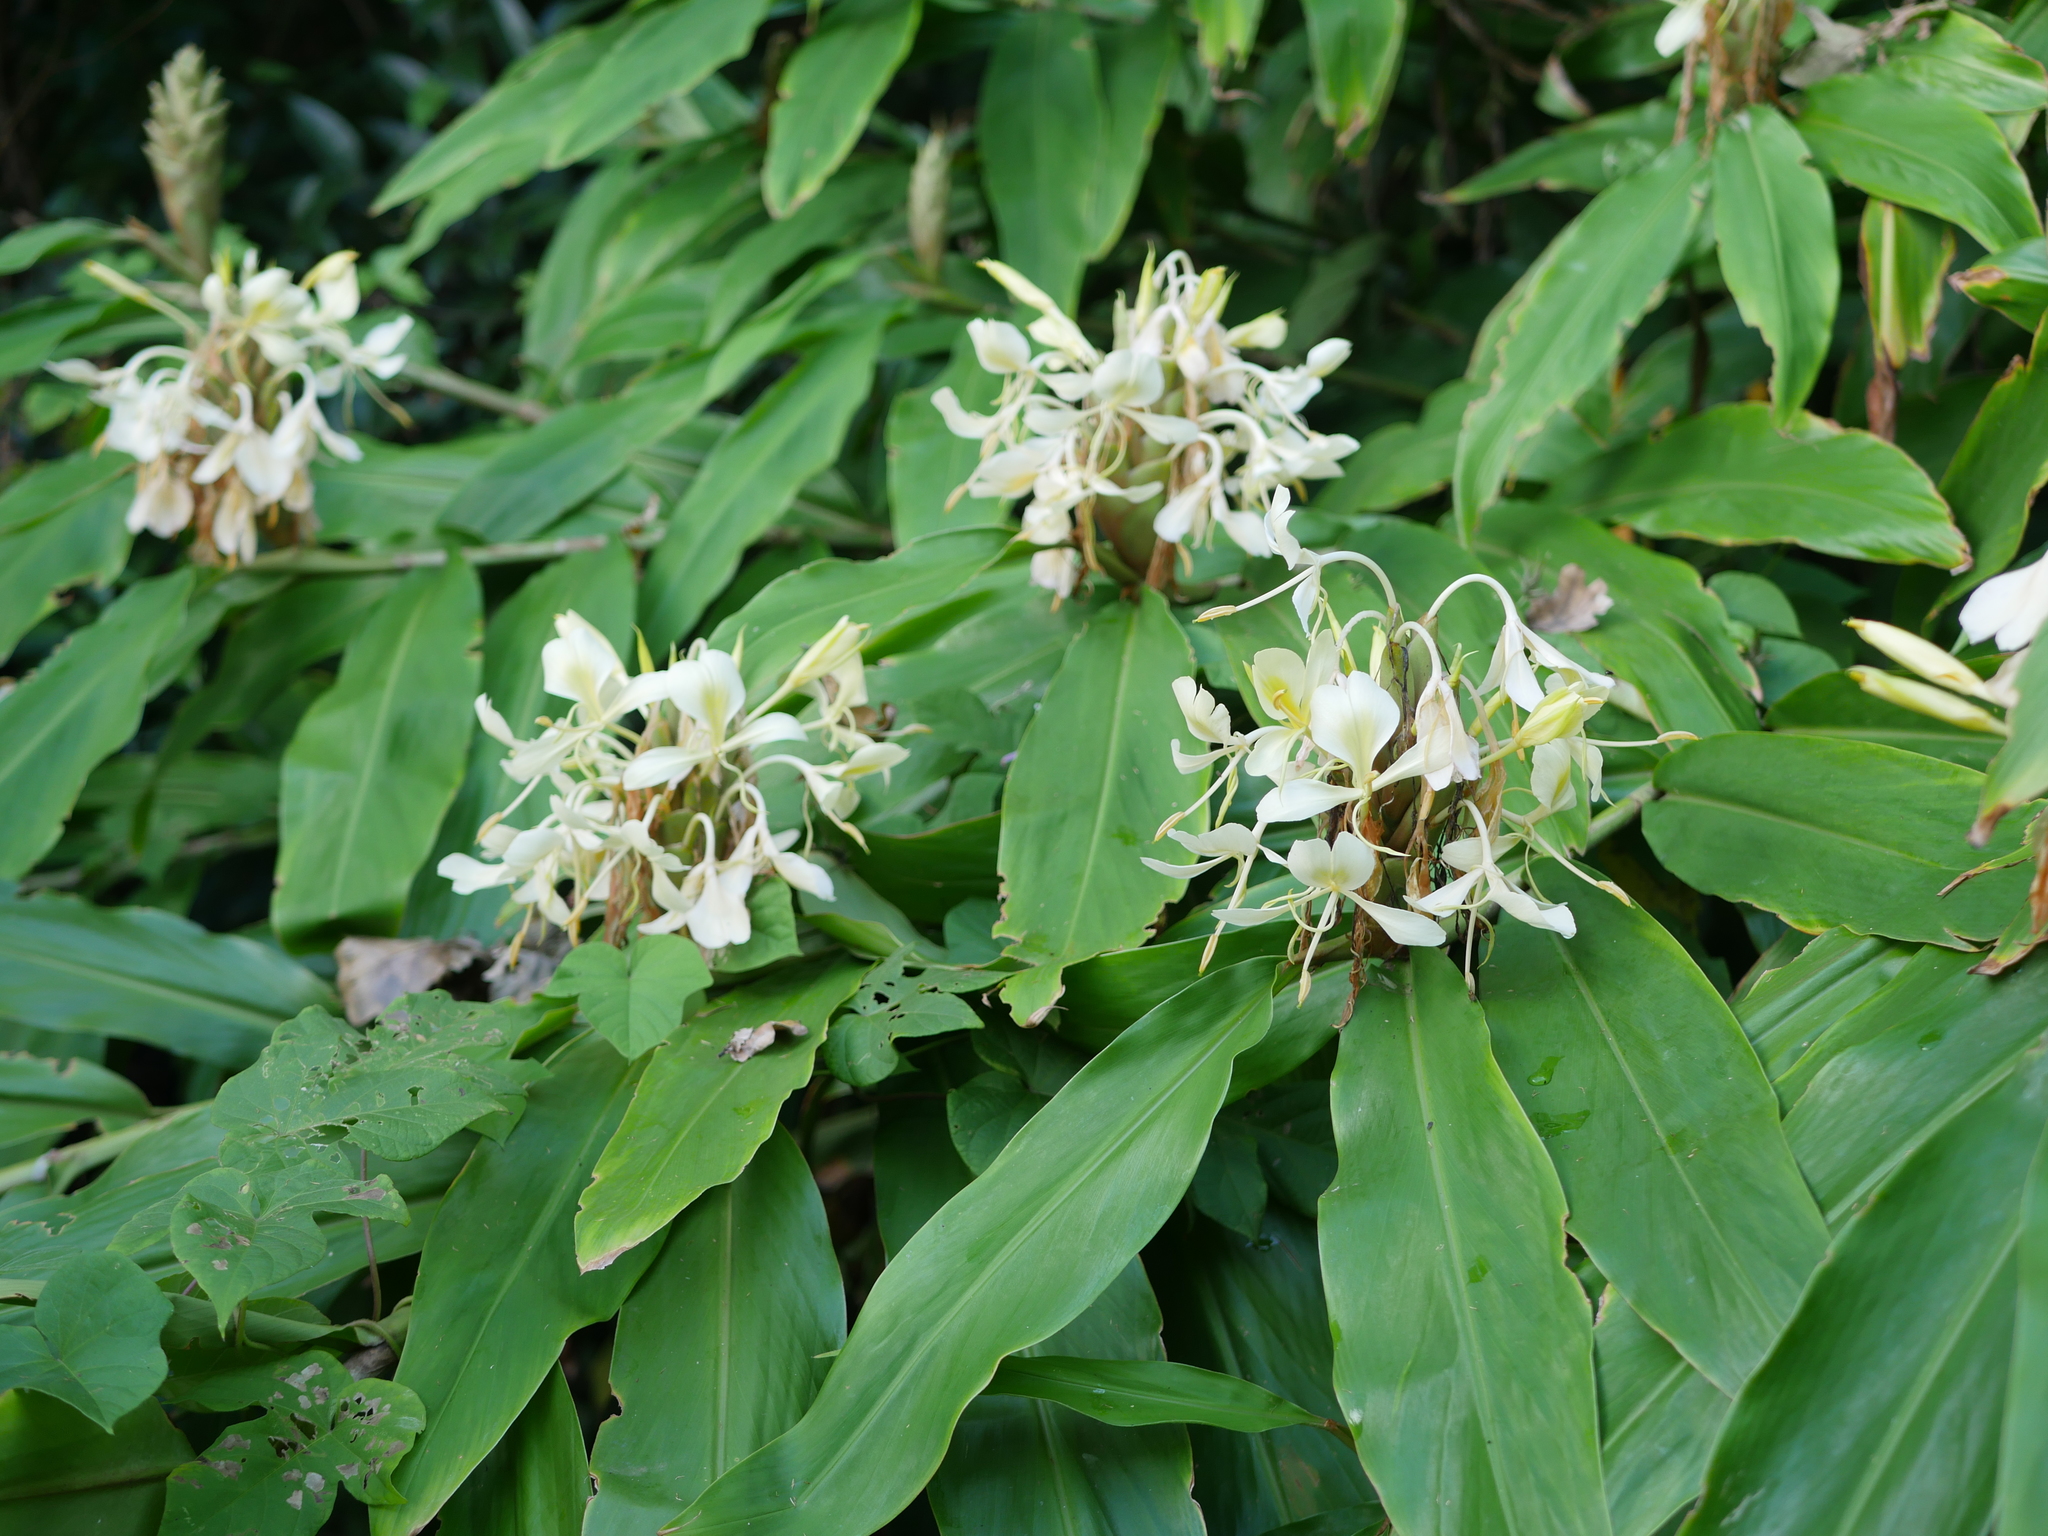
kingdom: Plantae
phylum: Tracheophyta
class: Liliopsida
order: Zingiberales
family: Zingiberaceae
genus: Hedychium
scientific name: Hedychium flavescens
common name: Yellow ginger
